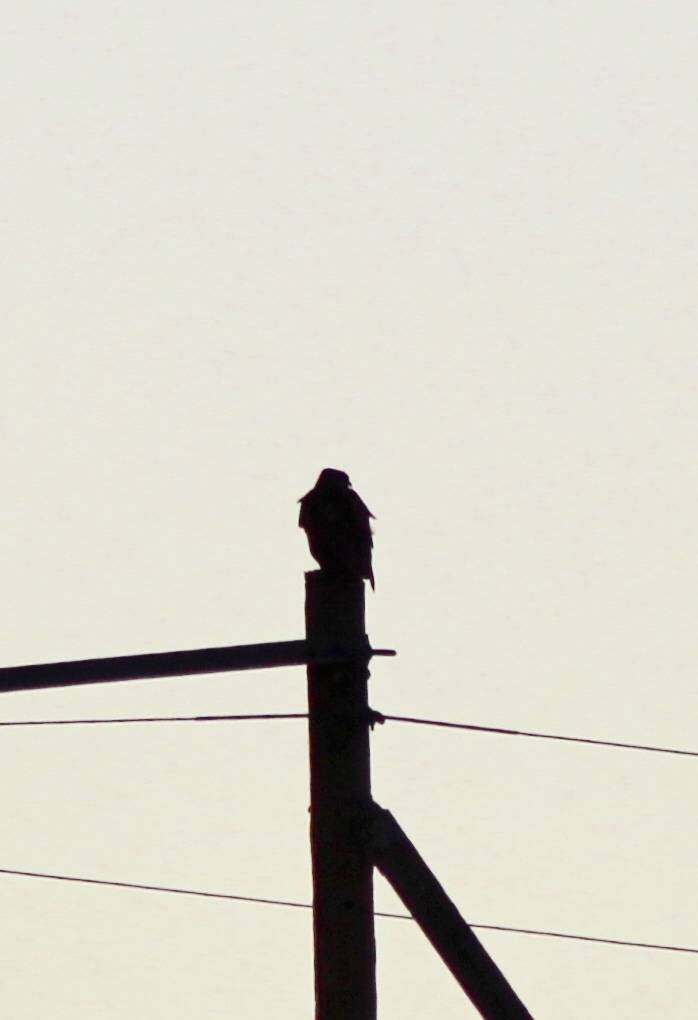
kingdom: Animalia
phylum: Chordata
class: Aves
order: Accipitriformes
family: Accipitridae
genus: Buteo
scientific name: Buteo jamaicensis
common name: Red-tailed hawk
